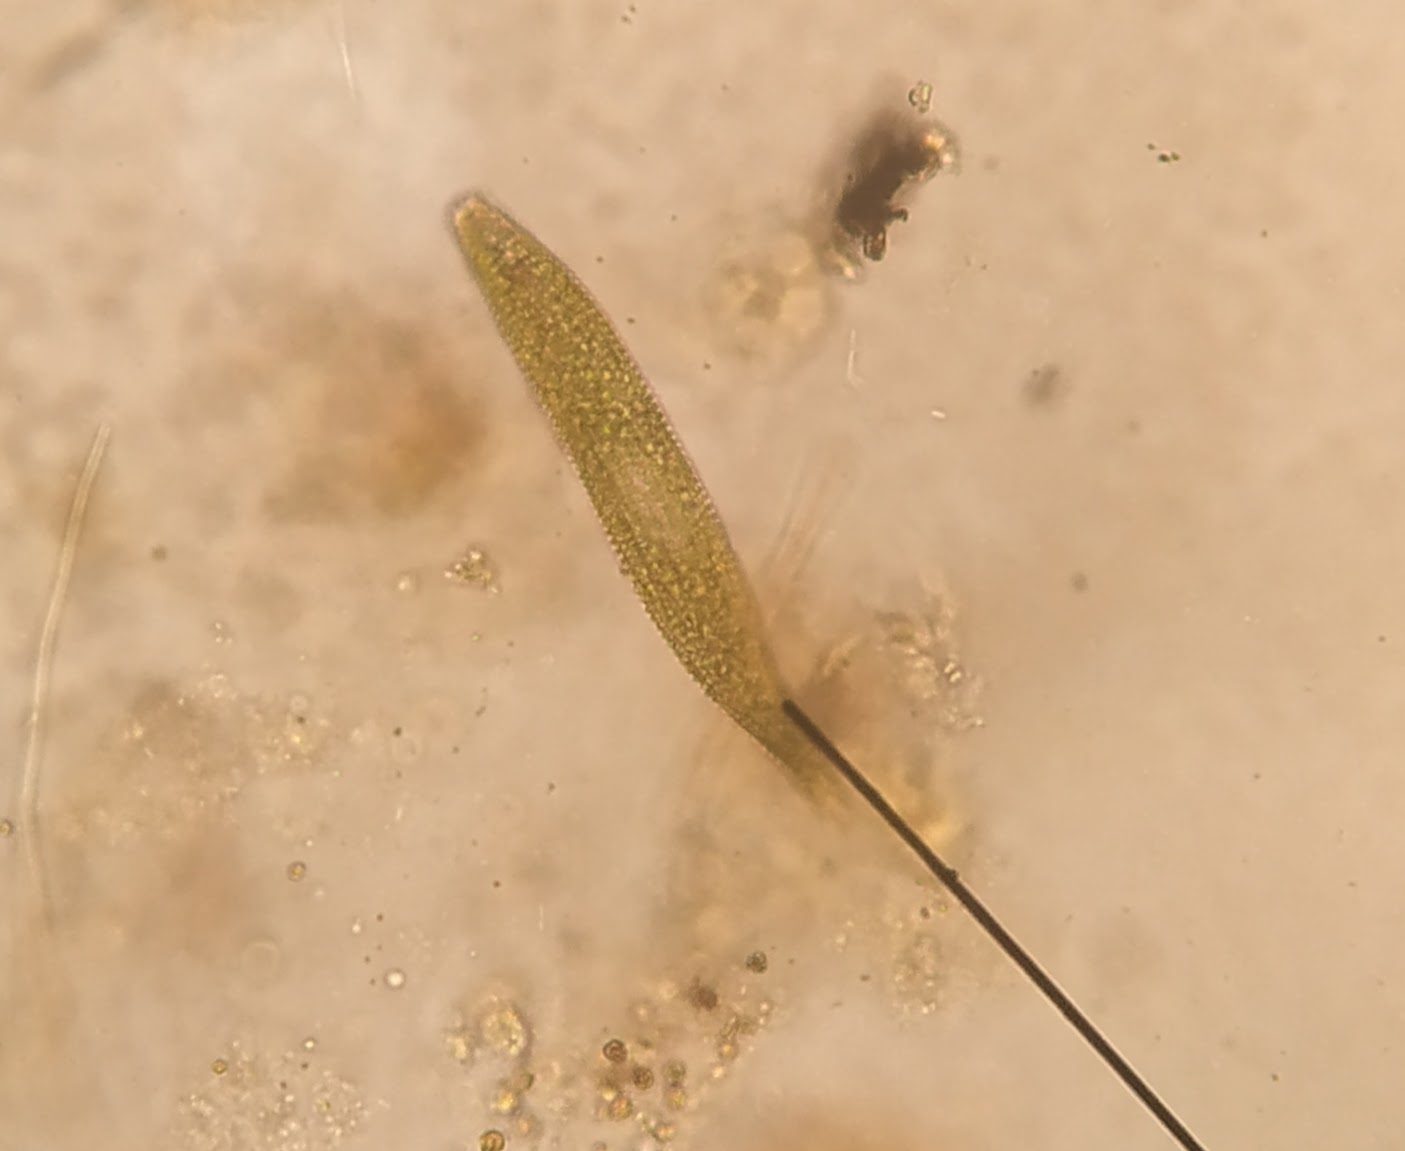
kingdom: Protozoa
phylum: Euglenozoa
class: Euglenoidea
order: Euglenida
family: Phacidae
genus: Lepocinclis
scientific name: Lepocinclis
